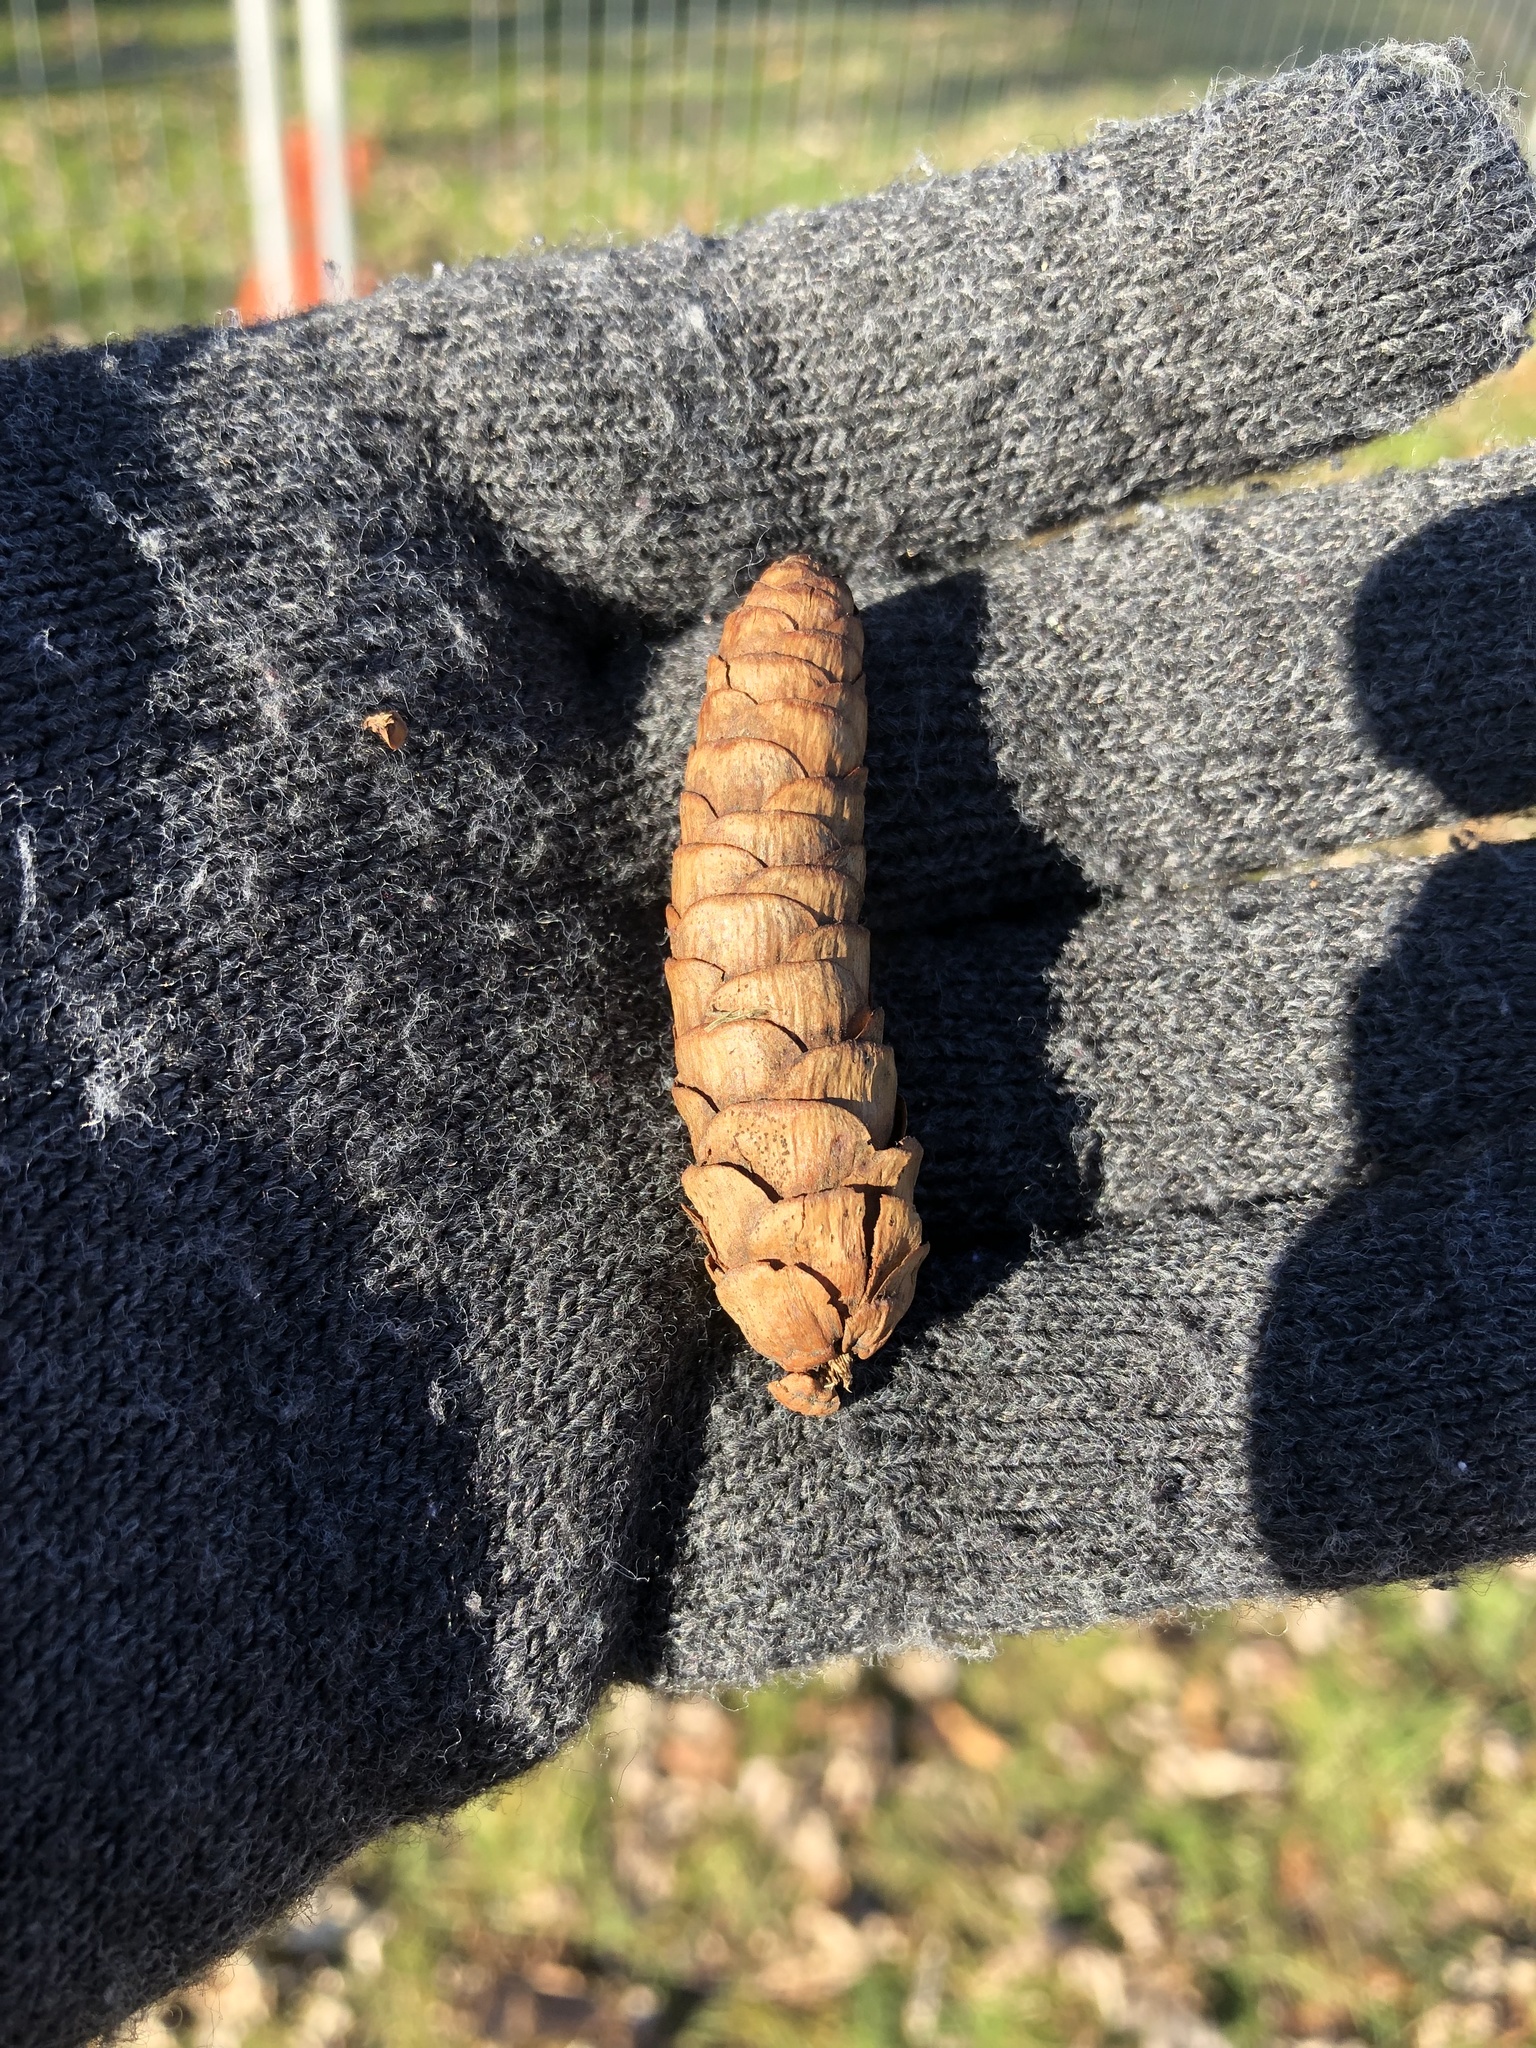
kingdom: Plantae
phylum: Tracheophyta
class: Pinopsida
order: Pinales
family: Pinaceae
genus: Picea
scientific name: Picea glauca
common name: White spruce
